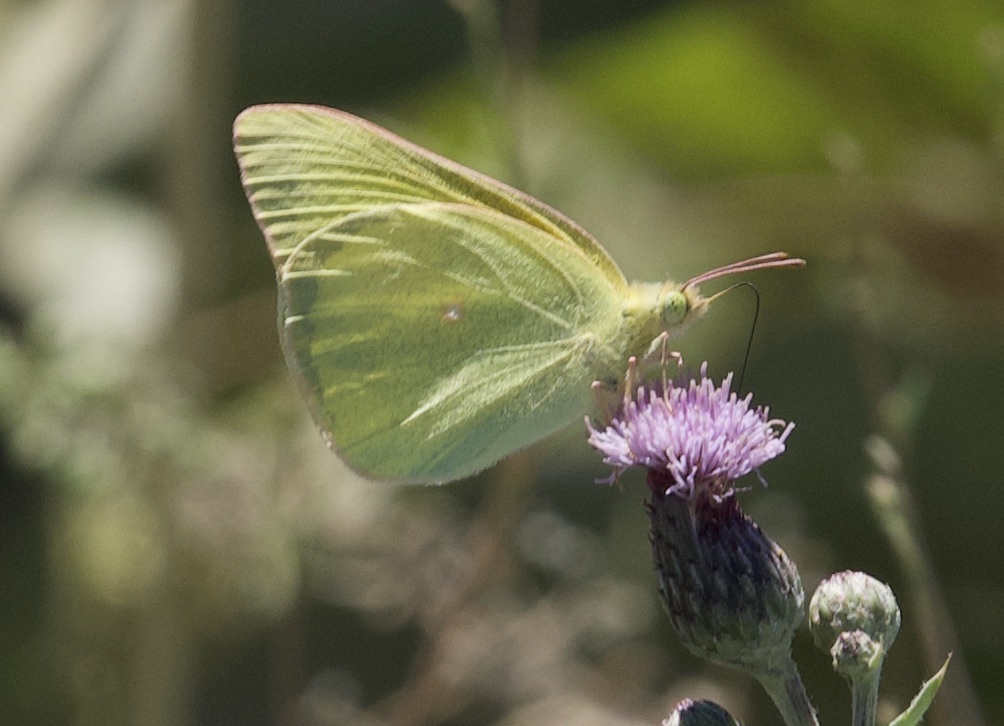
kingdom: Animalia
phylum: Arthropoda
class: Insecta
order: Lepidoptera
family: Pieridae
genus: Colias
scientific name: Colias alexandra
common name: Alexandra sulphur
